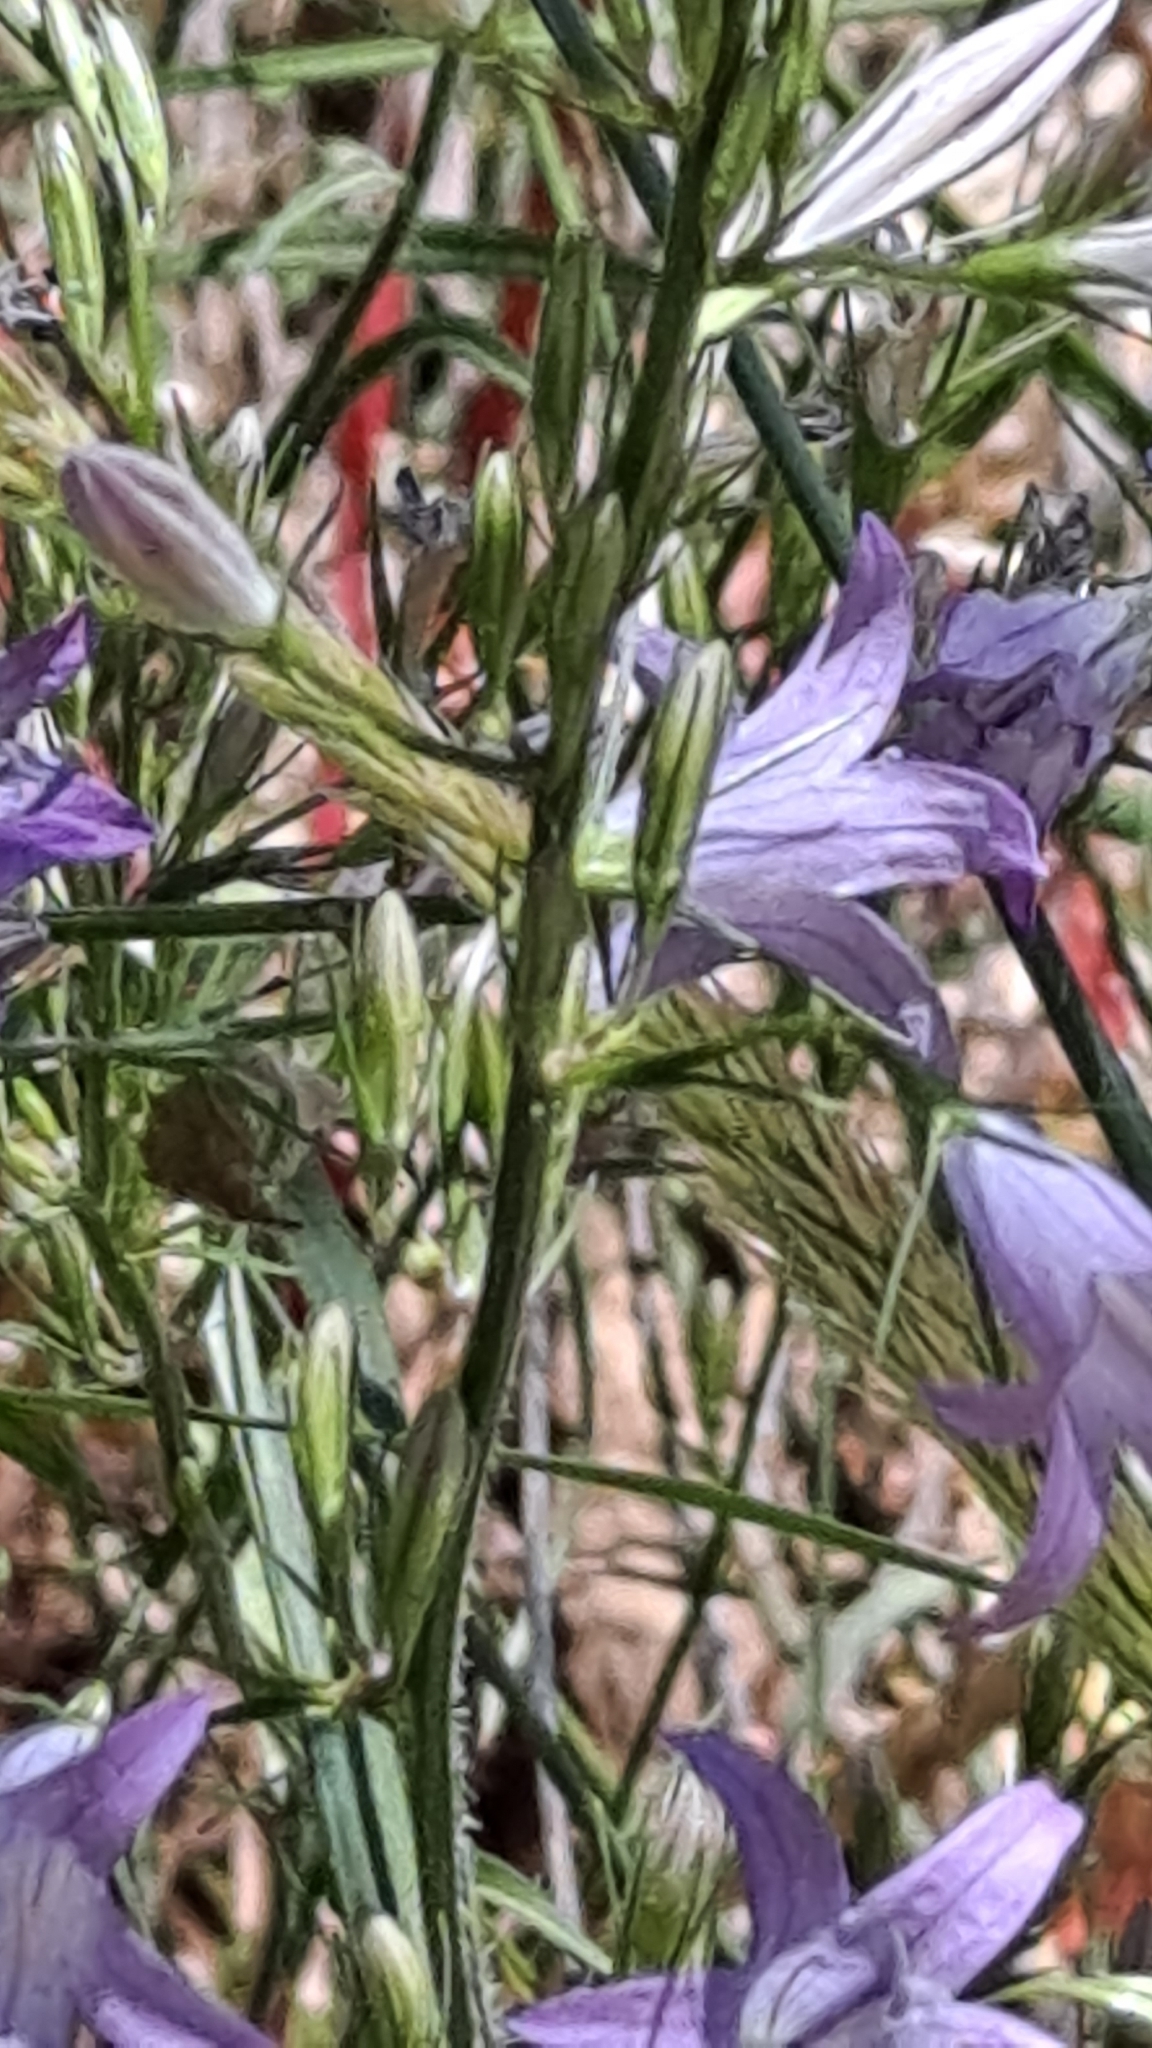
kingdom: Plantae
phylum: Tracheophyta
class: Magnoliopsida
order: Asterales
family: Campanulaceae
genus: Campanula
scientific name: Campanula rapunculus
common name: Rampion bellflower
